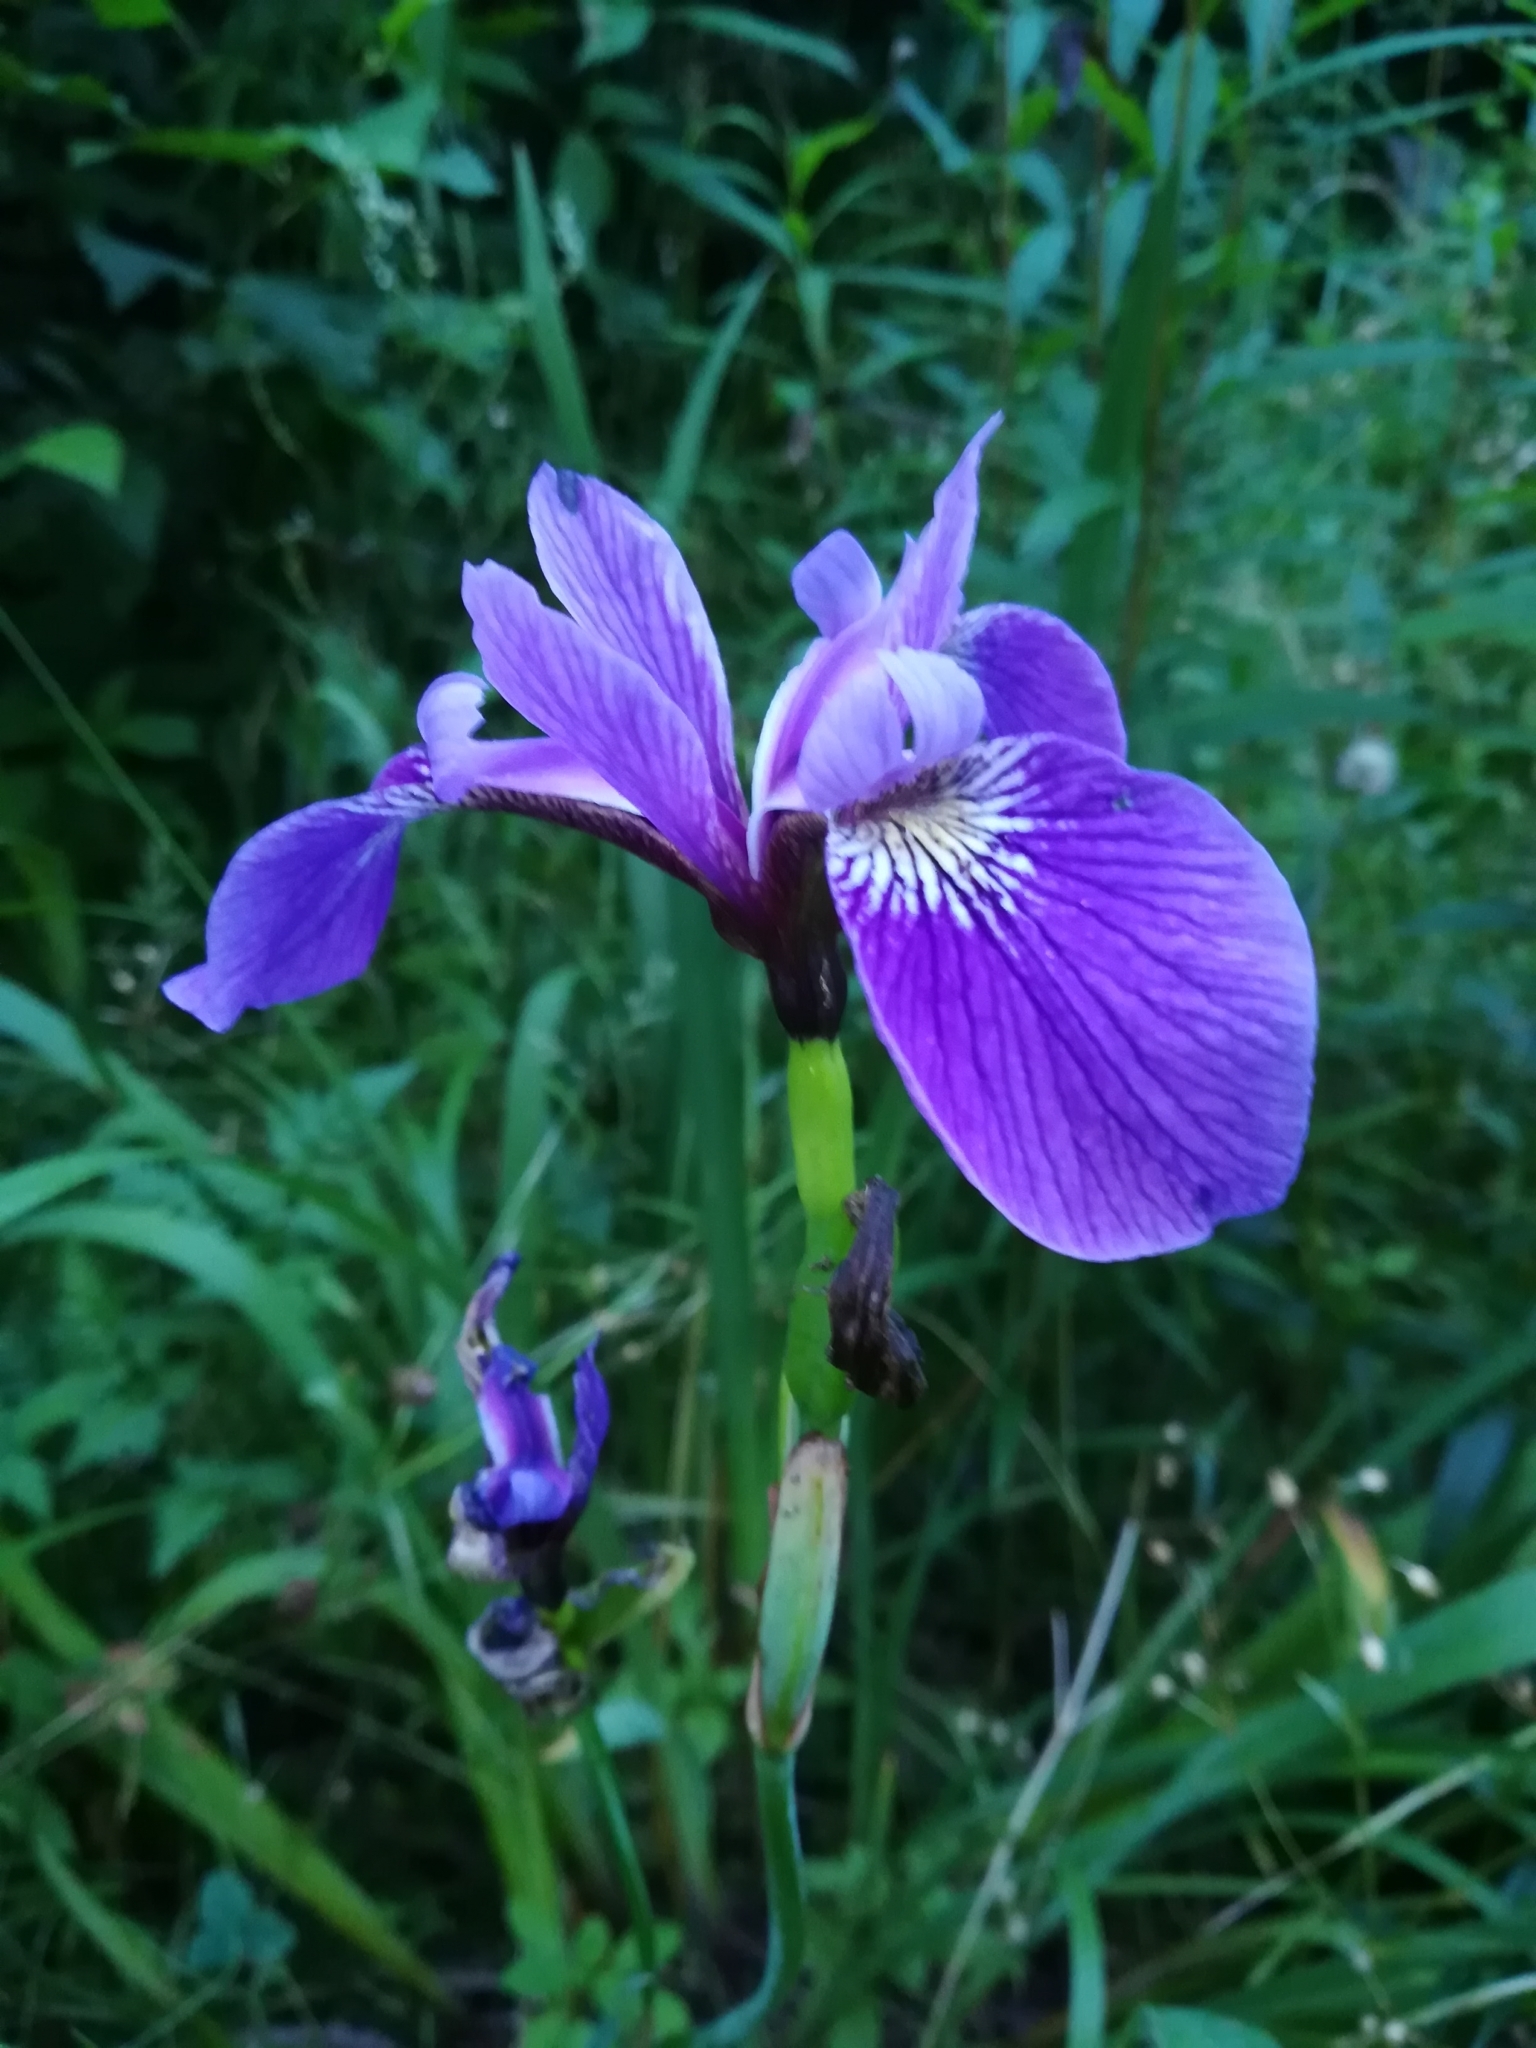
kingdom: Plantae
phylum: Tracheophyta
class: Liliopsida
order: Asparagales
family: Iridaceae
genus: Iris
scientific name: Iris versicolor
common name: Purple iris
